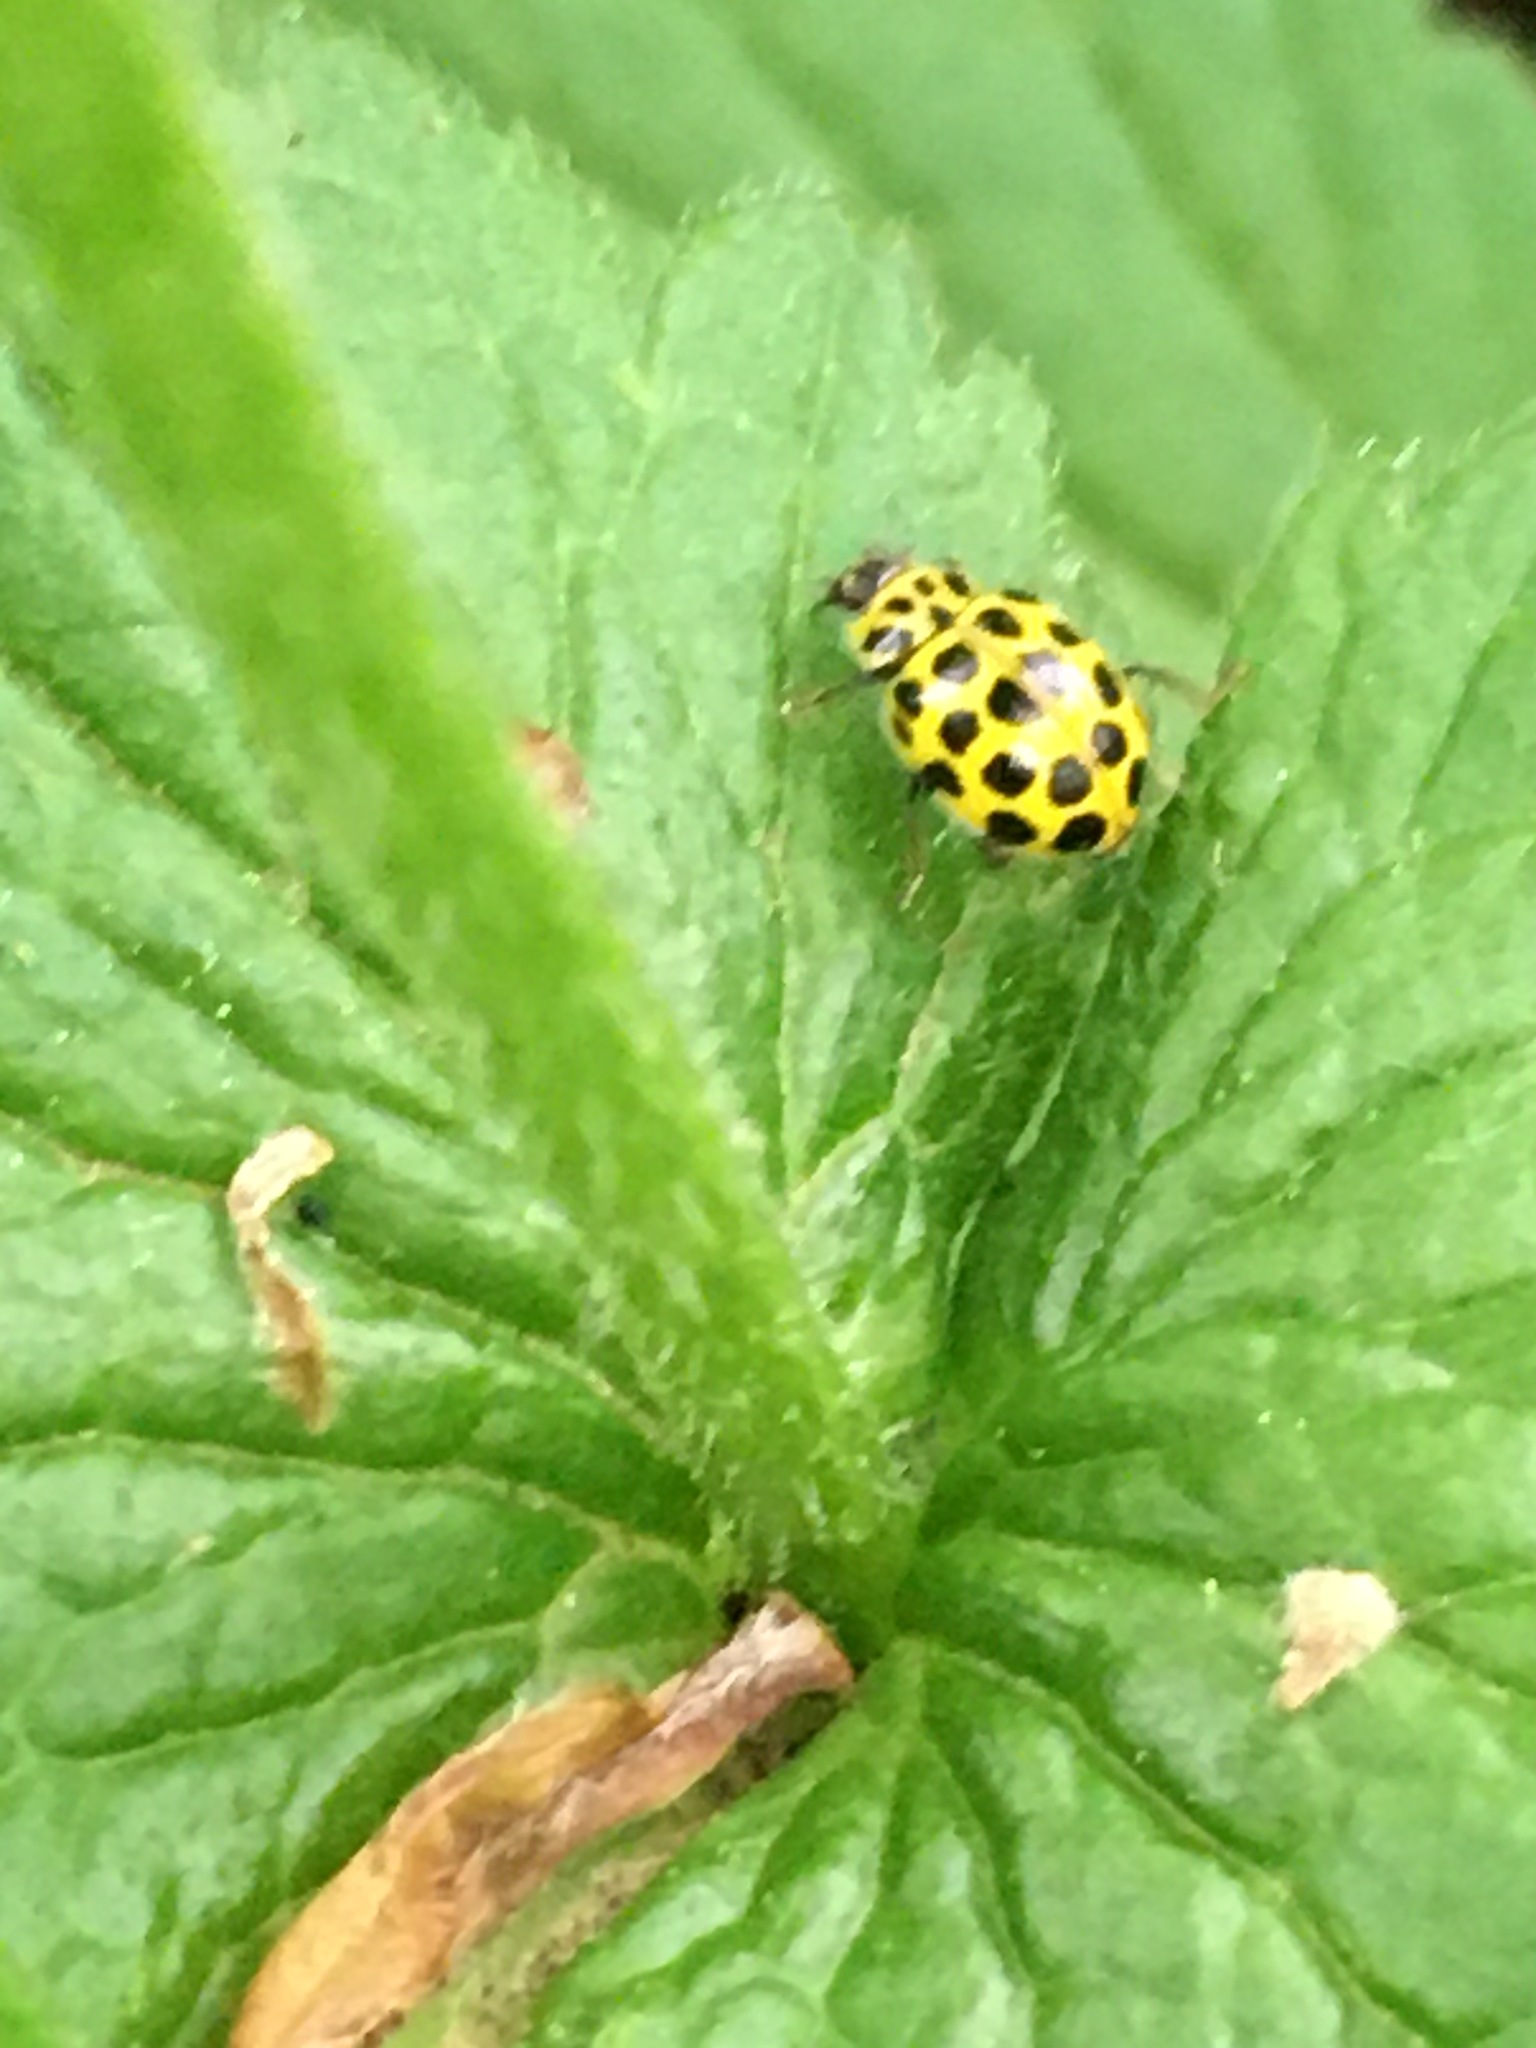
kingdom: Animalia
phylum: Arthropoda
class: Insecta
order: Coleoptera
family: Coccinellidae
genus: Psyllobora
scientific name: Psyllobora vigintiduopunctata
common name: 22-spot ladybird
